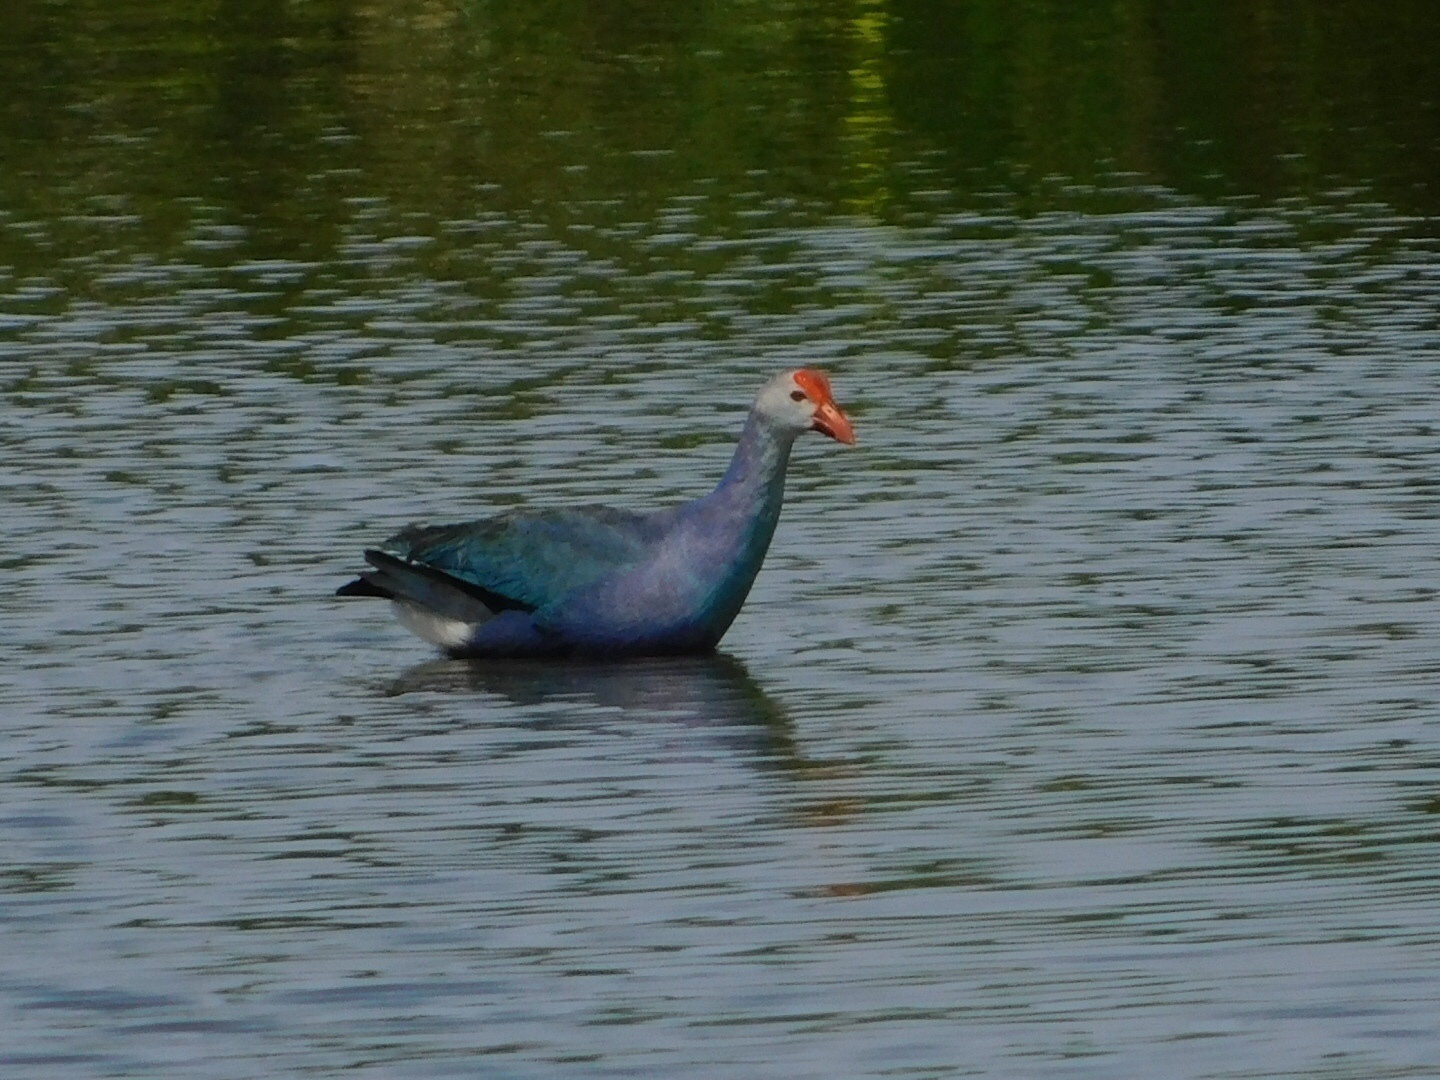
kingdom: Animalia
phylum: Chordata
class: Aves
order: Gruiformes
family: Rallidae
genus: Porphyrio
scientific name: Porphyrio porphyrio
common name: Purple swamphen
